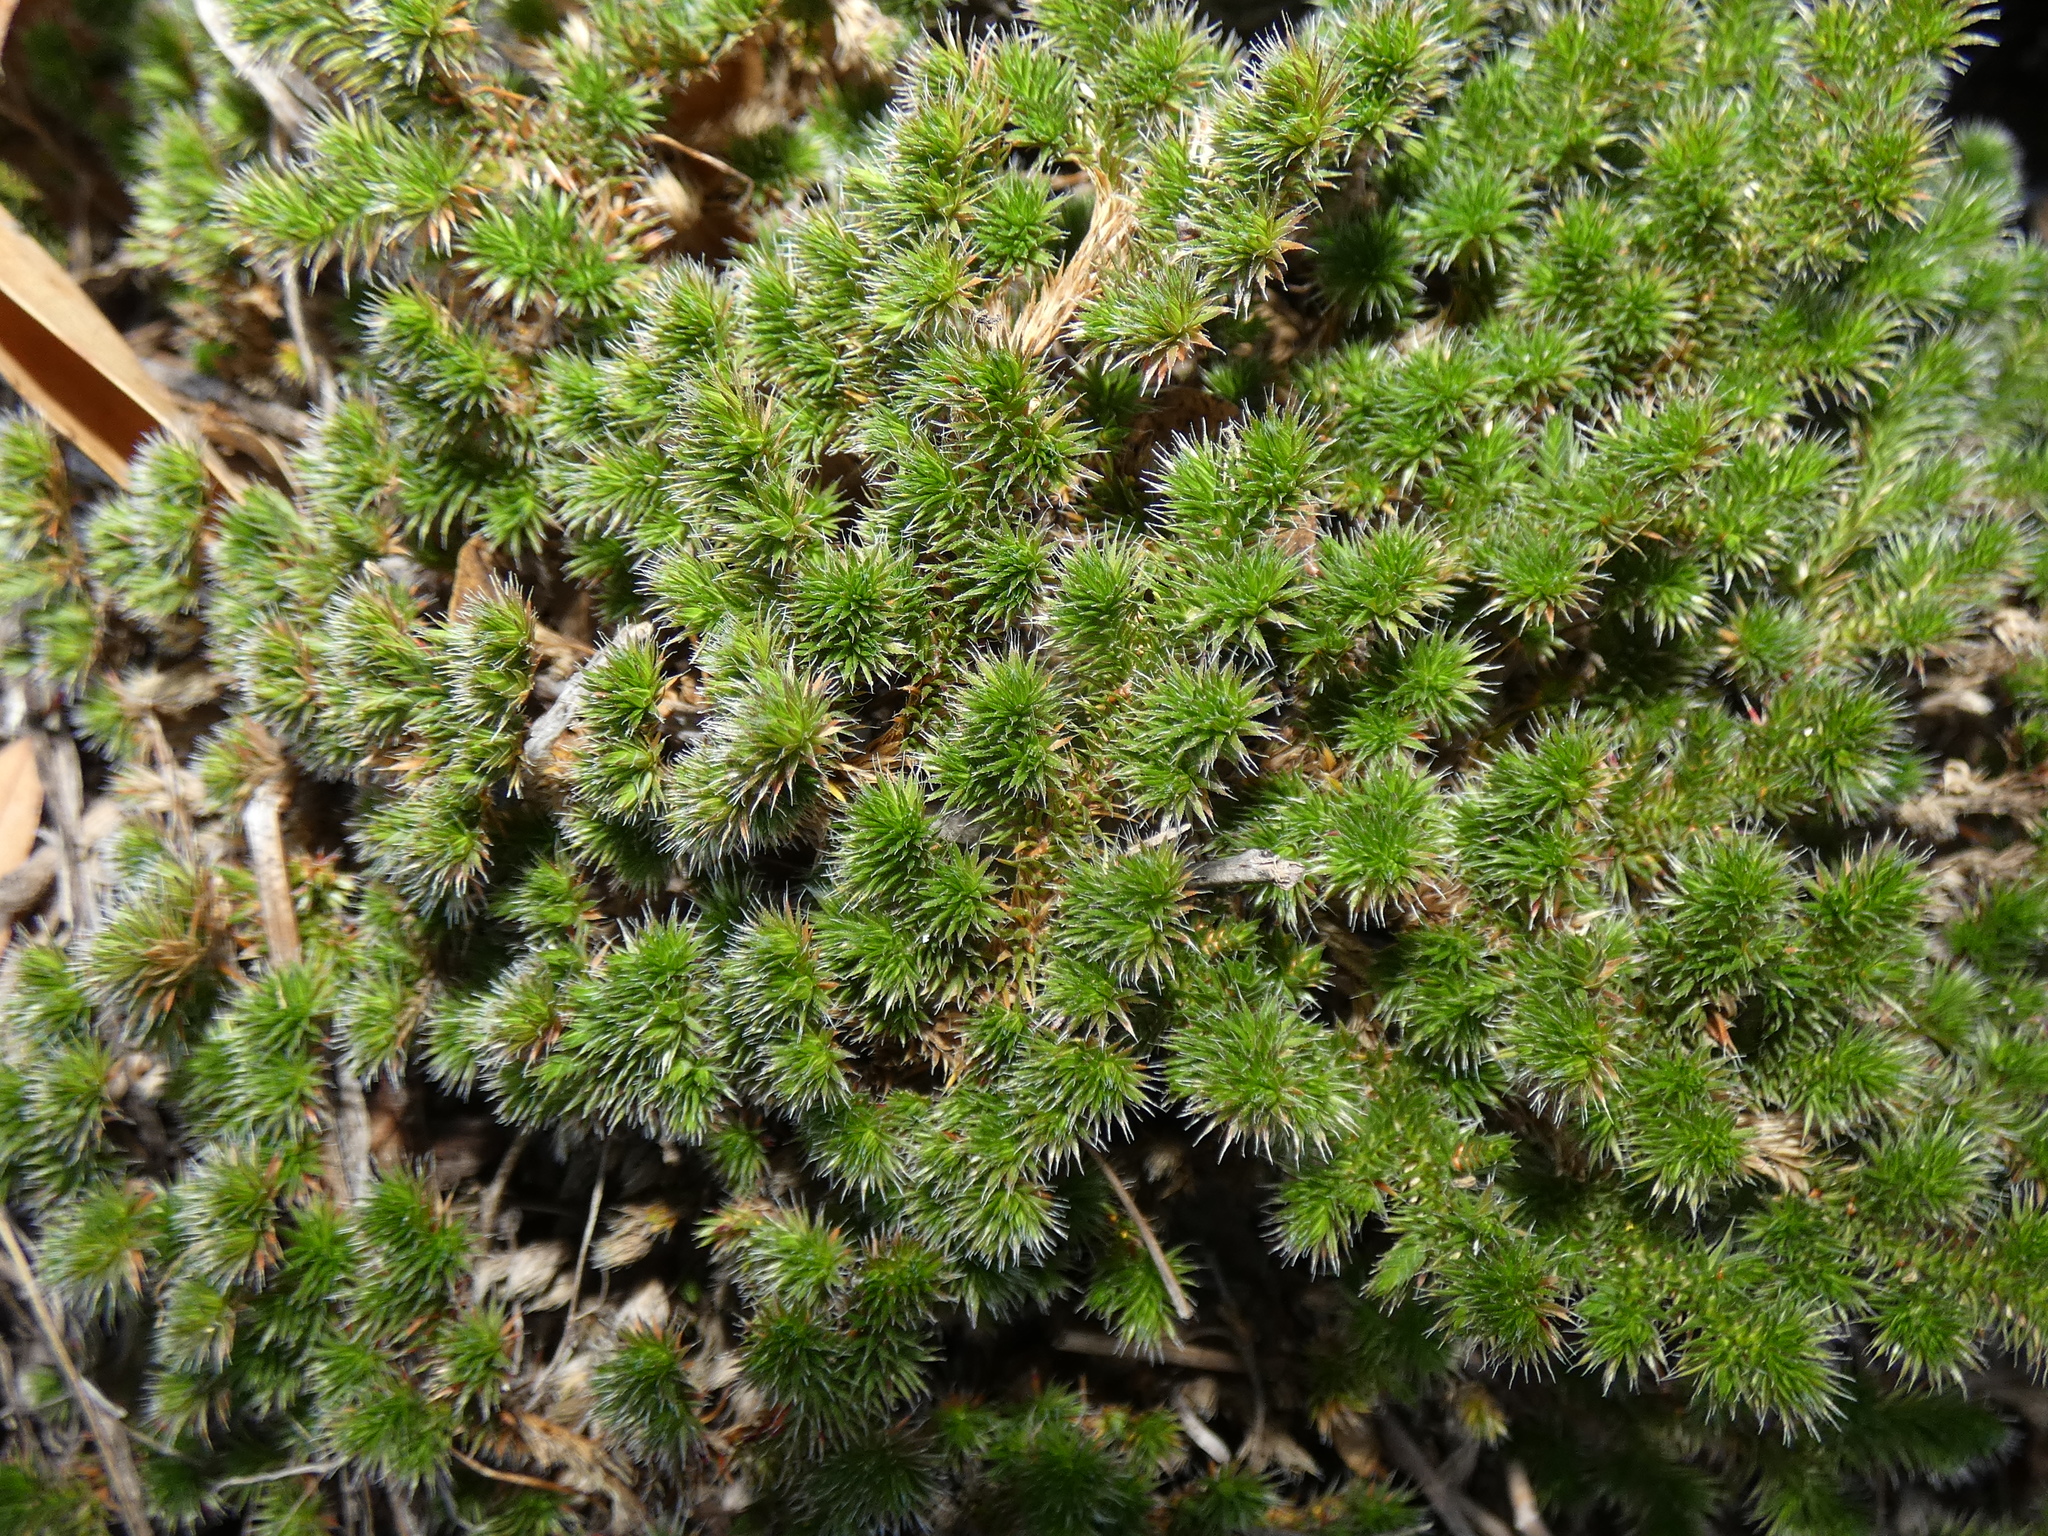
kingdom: Plantae
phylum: Tracheophyta
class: Lycopodiopsida
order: Selaginellales
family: Selaginellaceae
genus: Selaginella
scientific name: Selaginella hansenii
